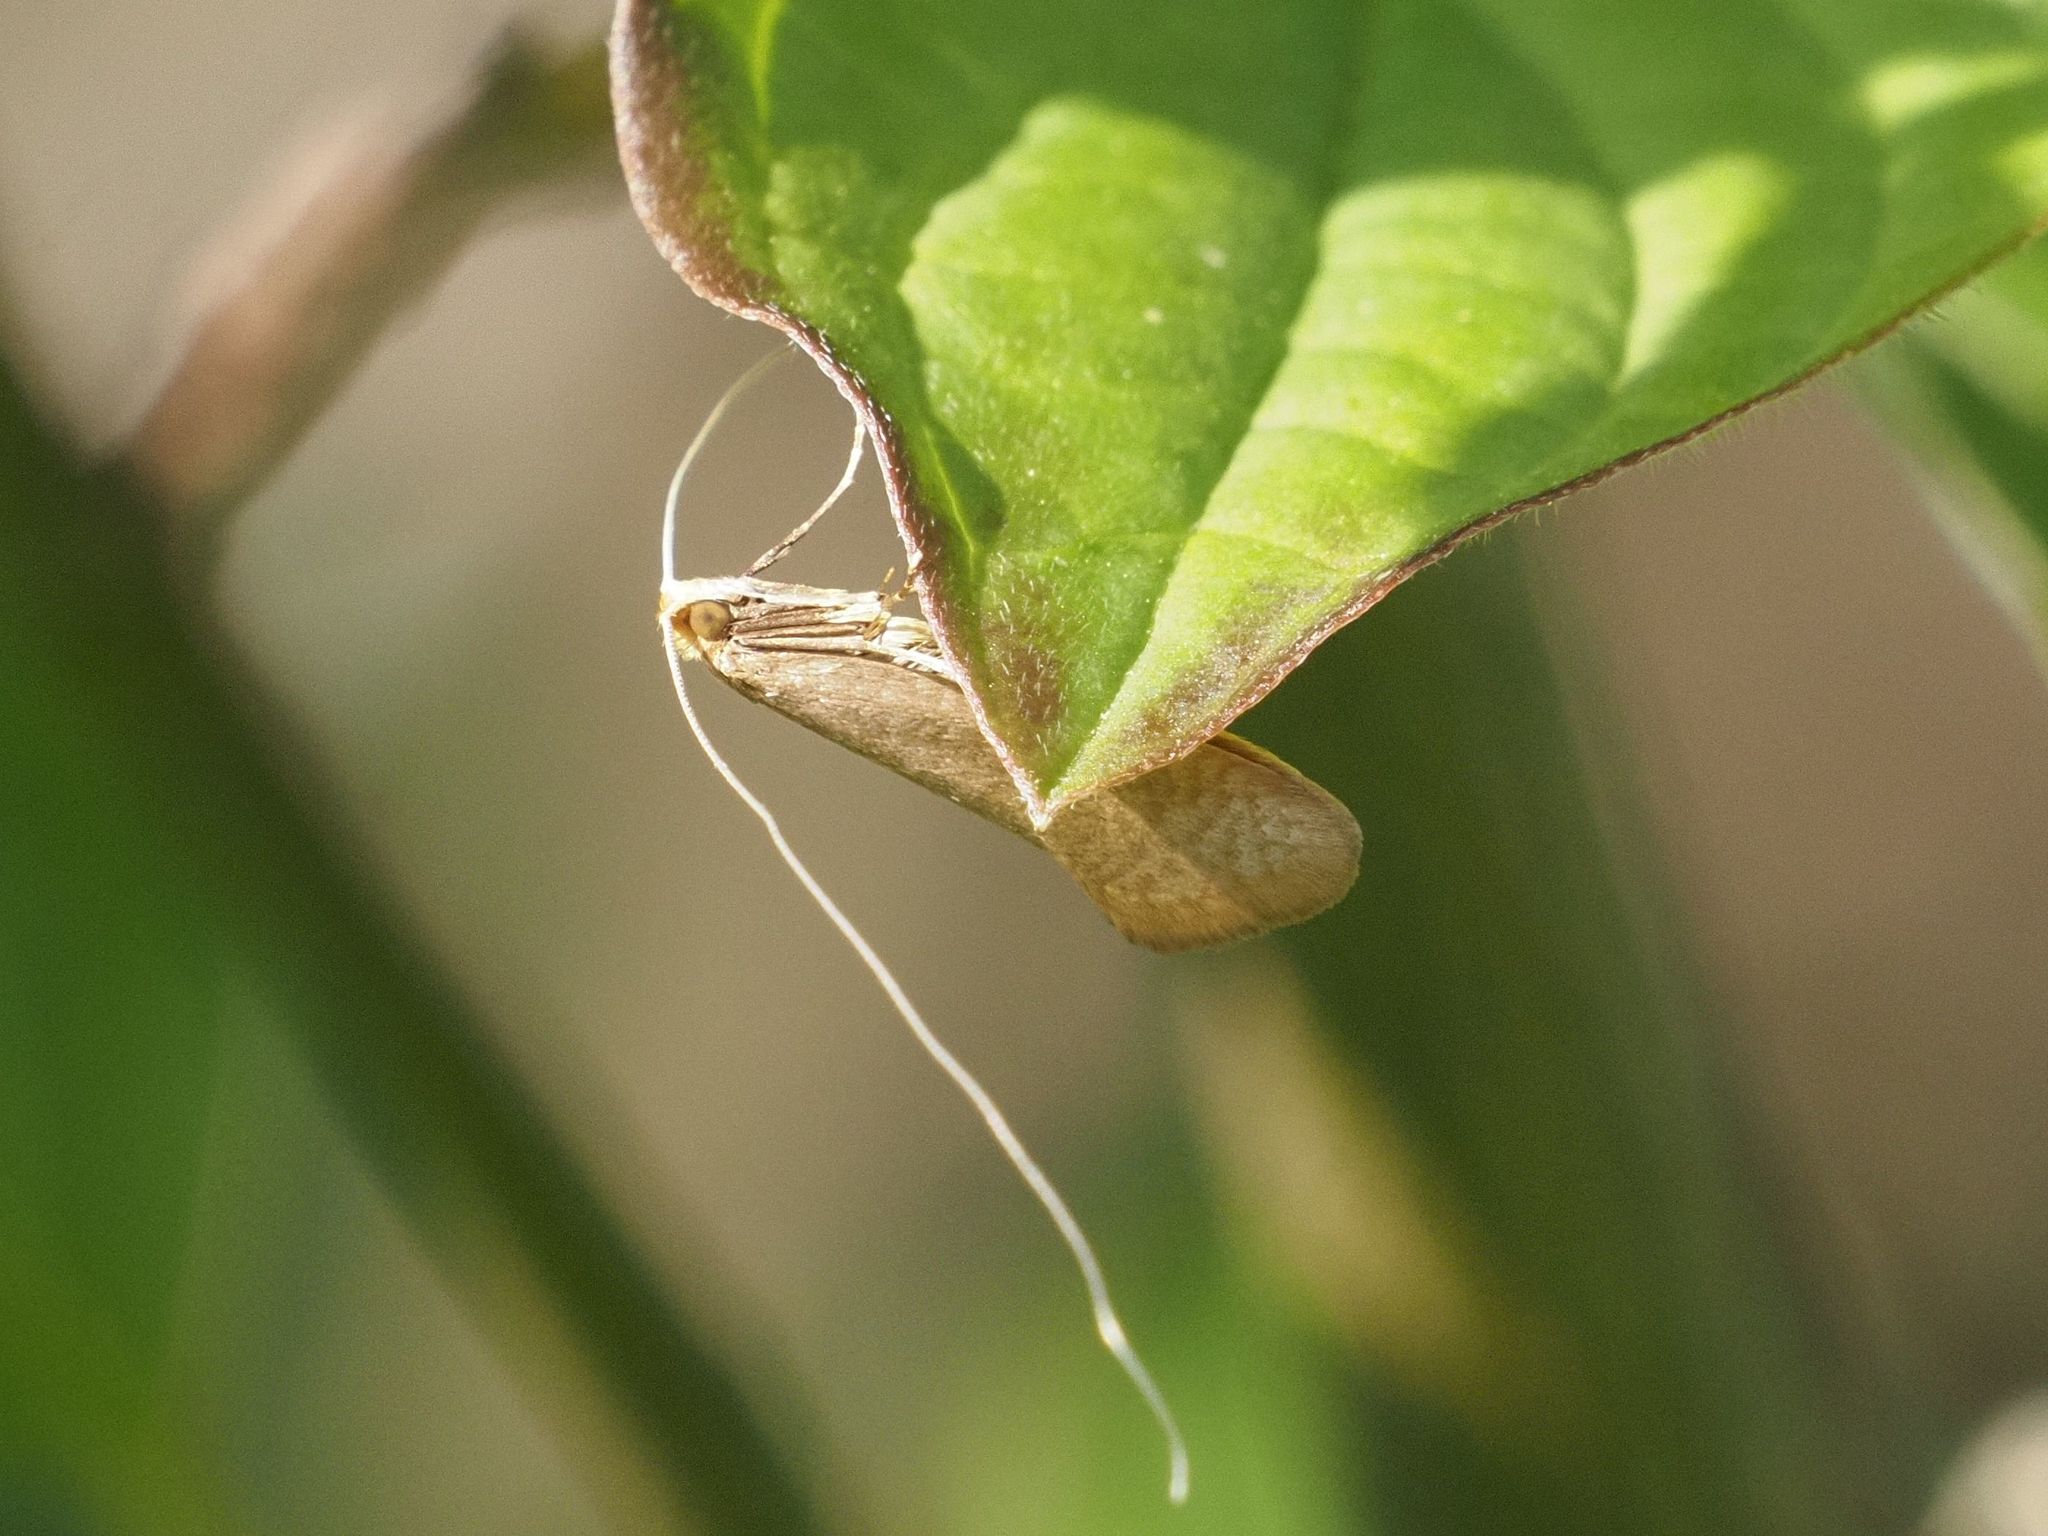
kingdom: Animalia
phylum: Arthropoda
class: Insecta
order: Lepidoptera
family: Adelidae
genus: Nematopogon
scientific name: Nematopogon swammerdamella
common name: Large long-horn
